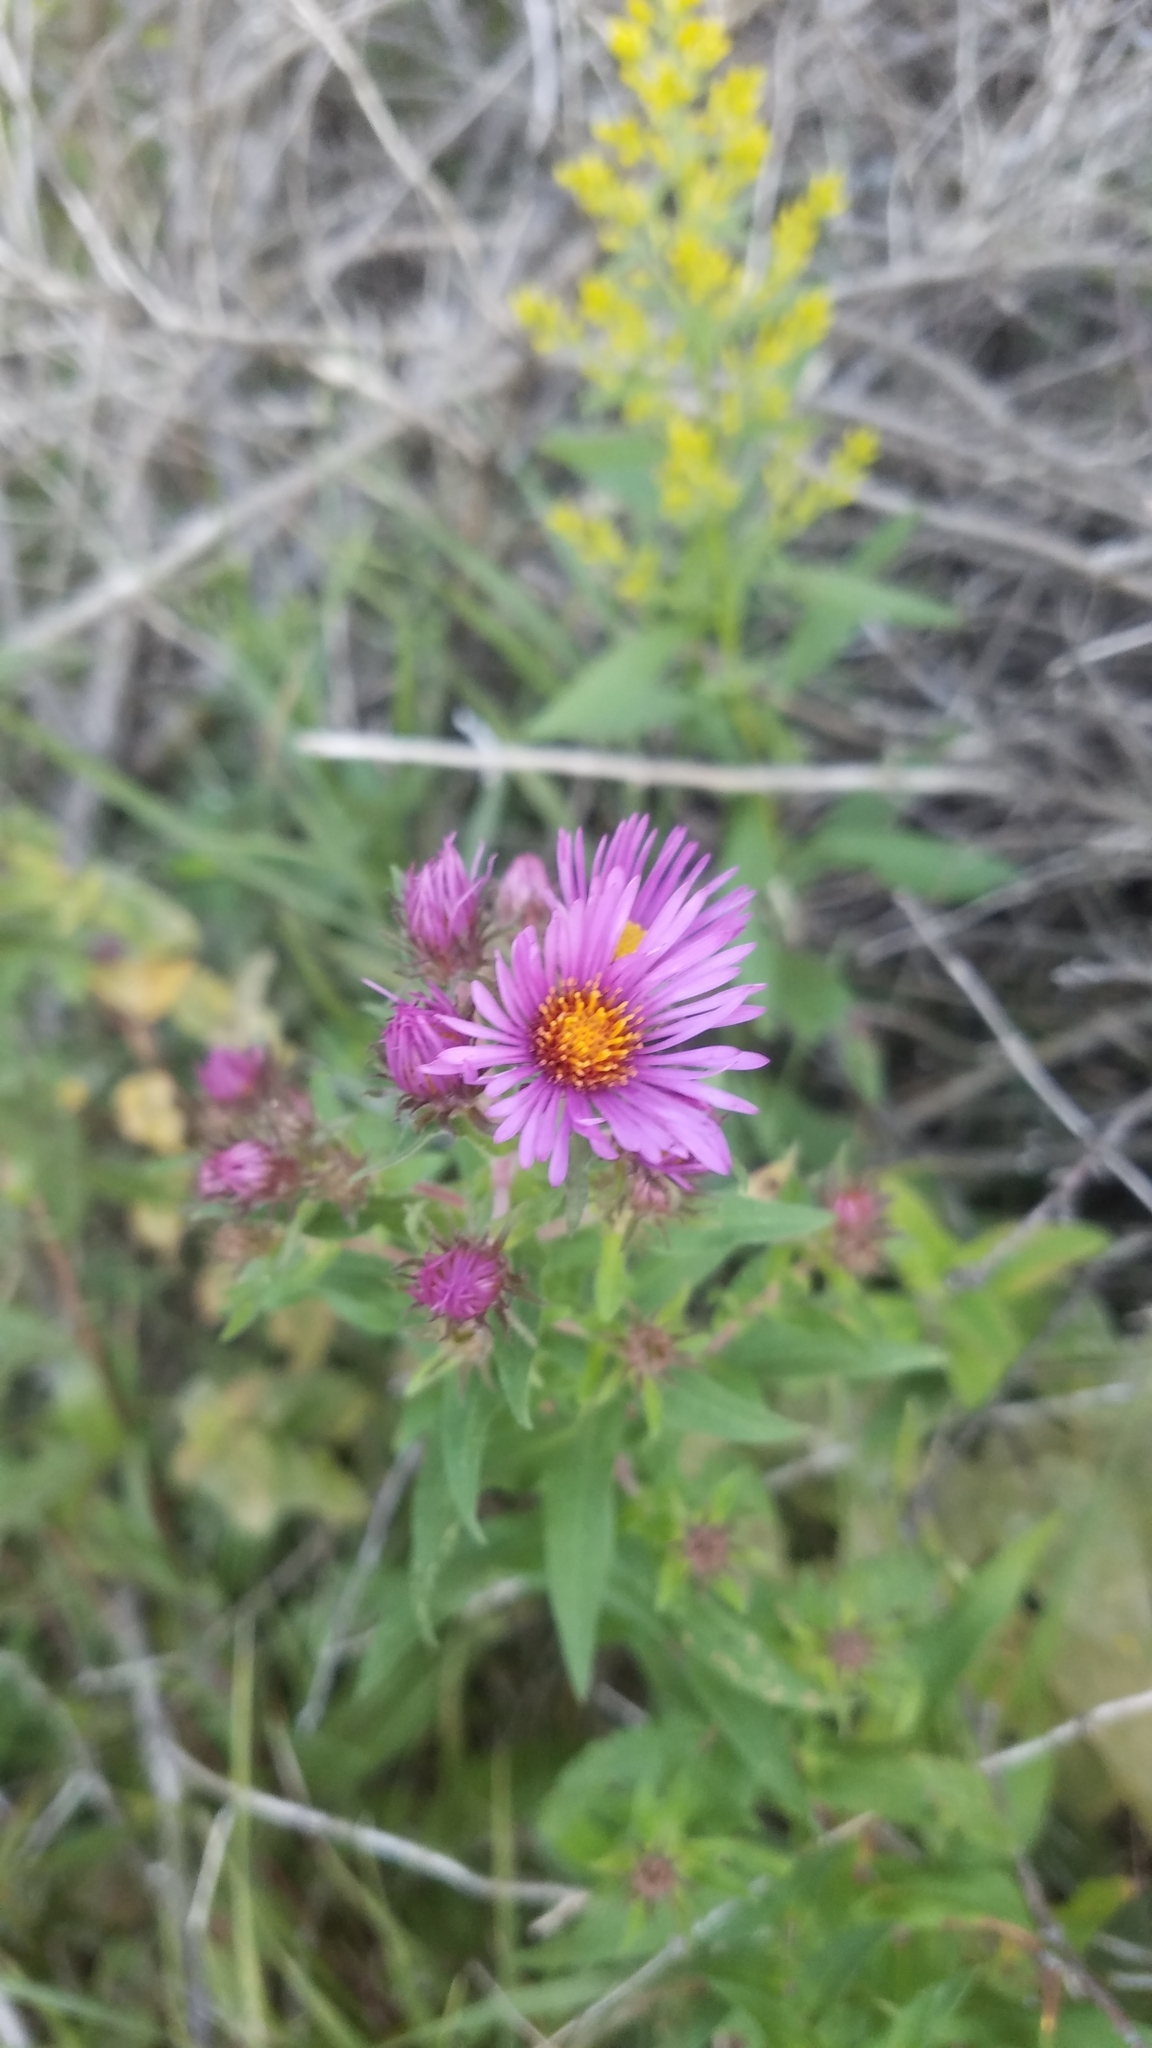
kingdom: Plantae
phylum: Tracheophyta
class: Magnoliopsida
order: Asterales
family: Asteraceae
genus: Symphyotrichum
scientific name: Symphyotrichum novae-angliae
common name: Michaelmas daisy
